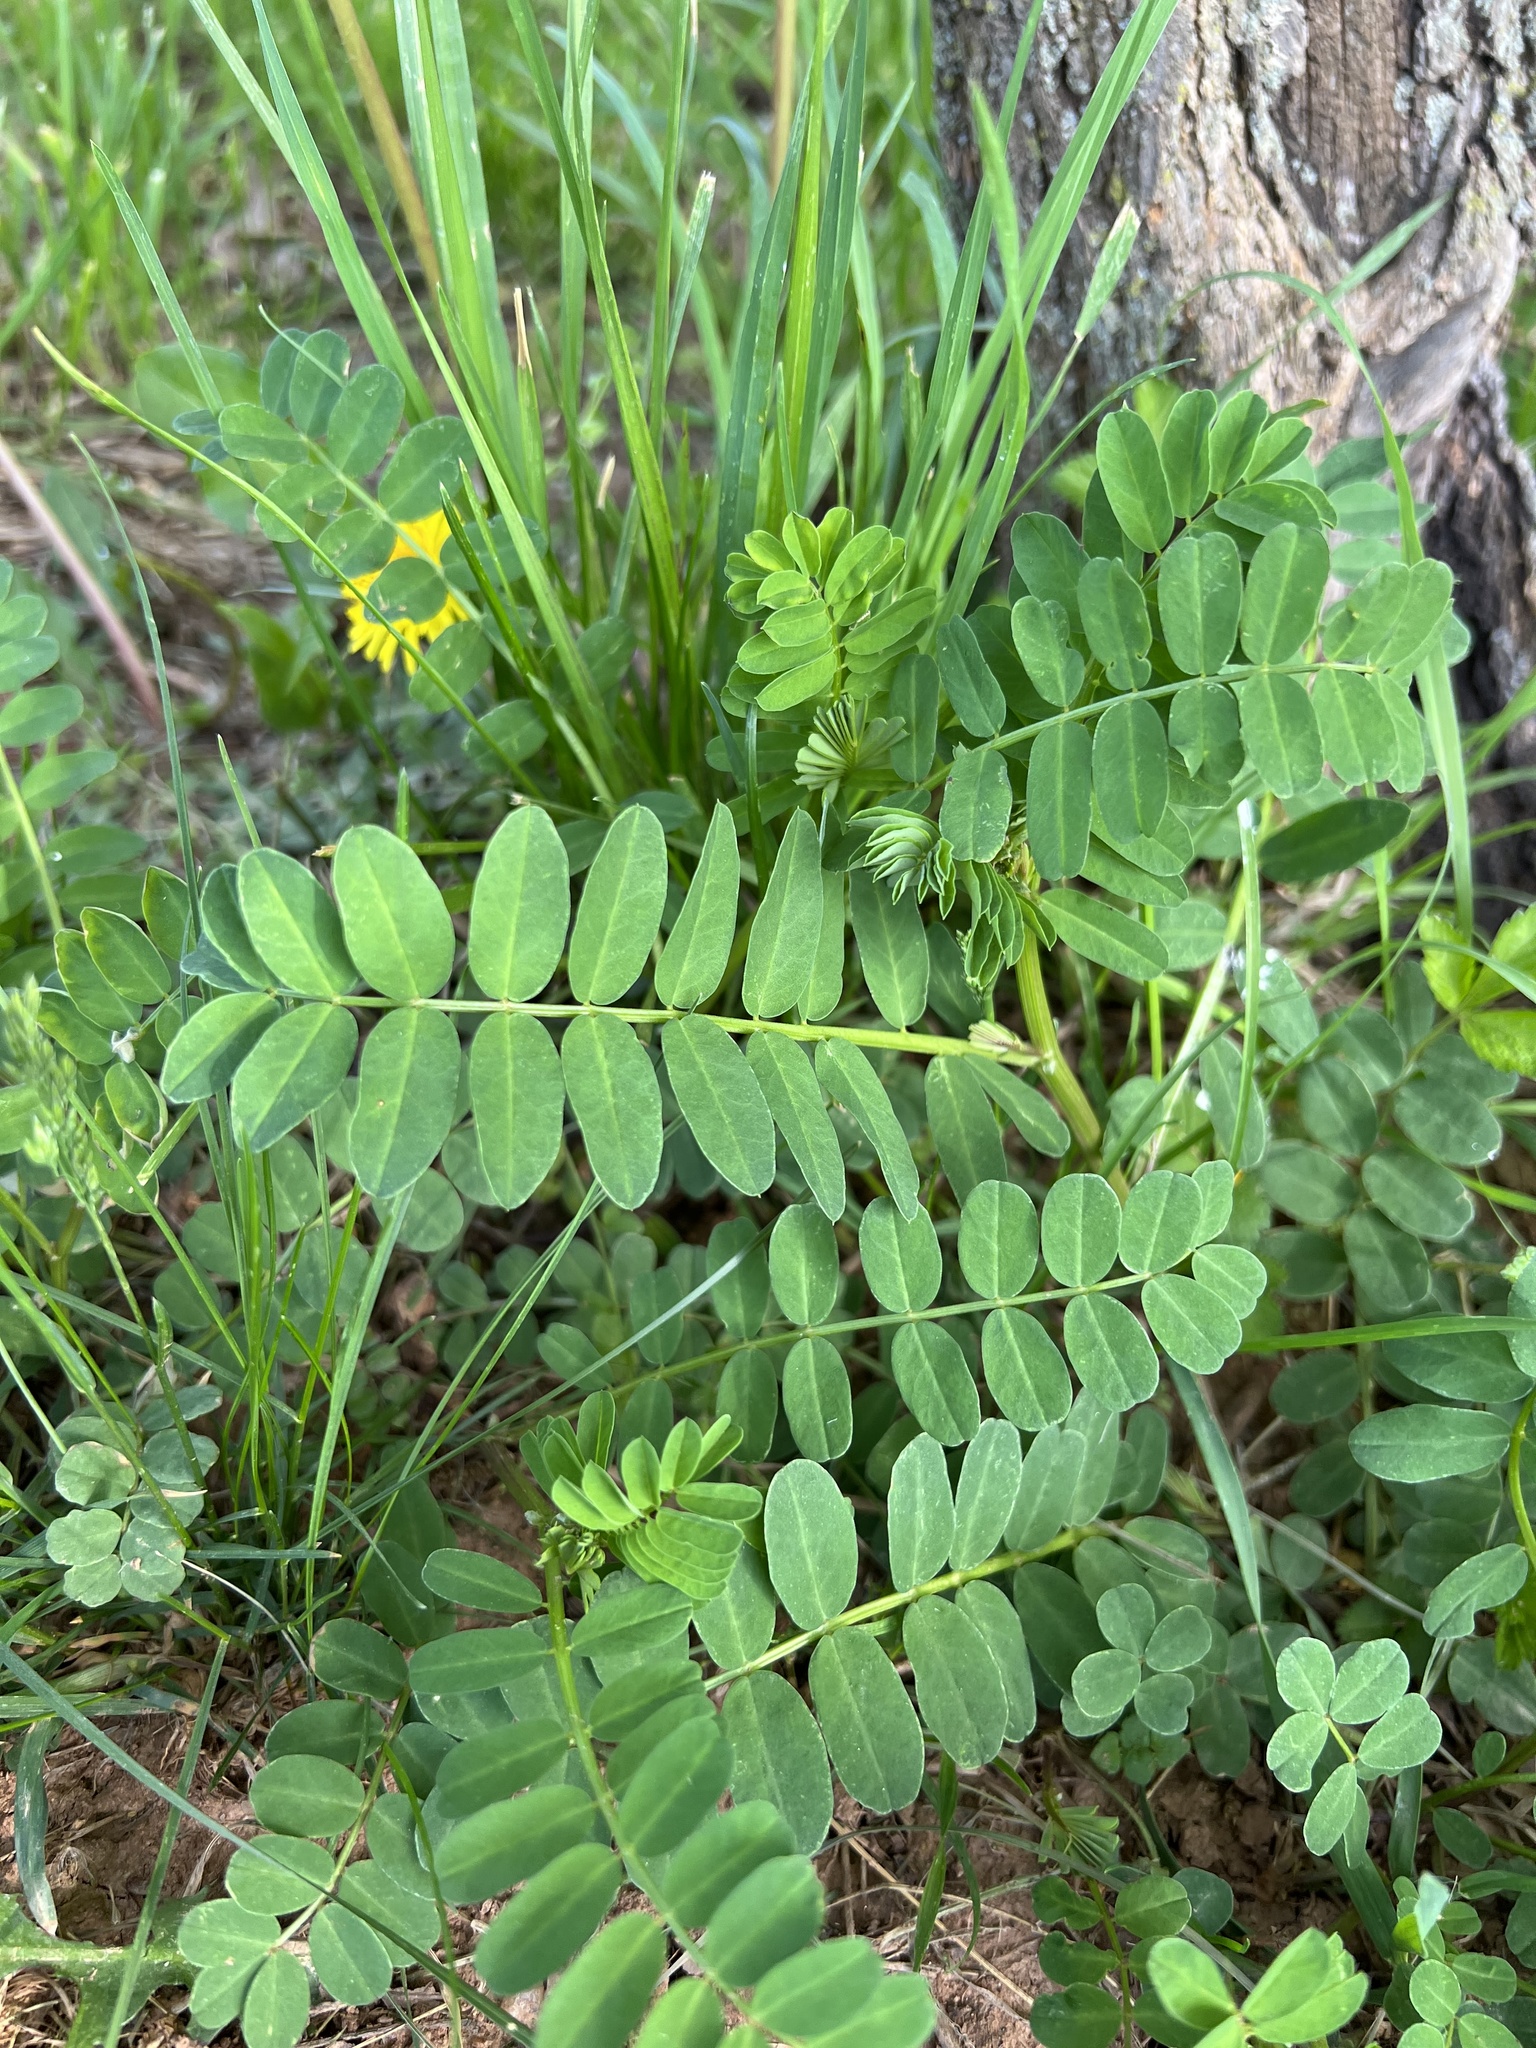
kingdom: Plantae
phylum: Tracheophyta
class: Magnoliopsida
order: Fabales
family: Fabaceae
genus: Coronilla
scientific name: Coronilla varia
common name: Crownvetch
